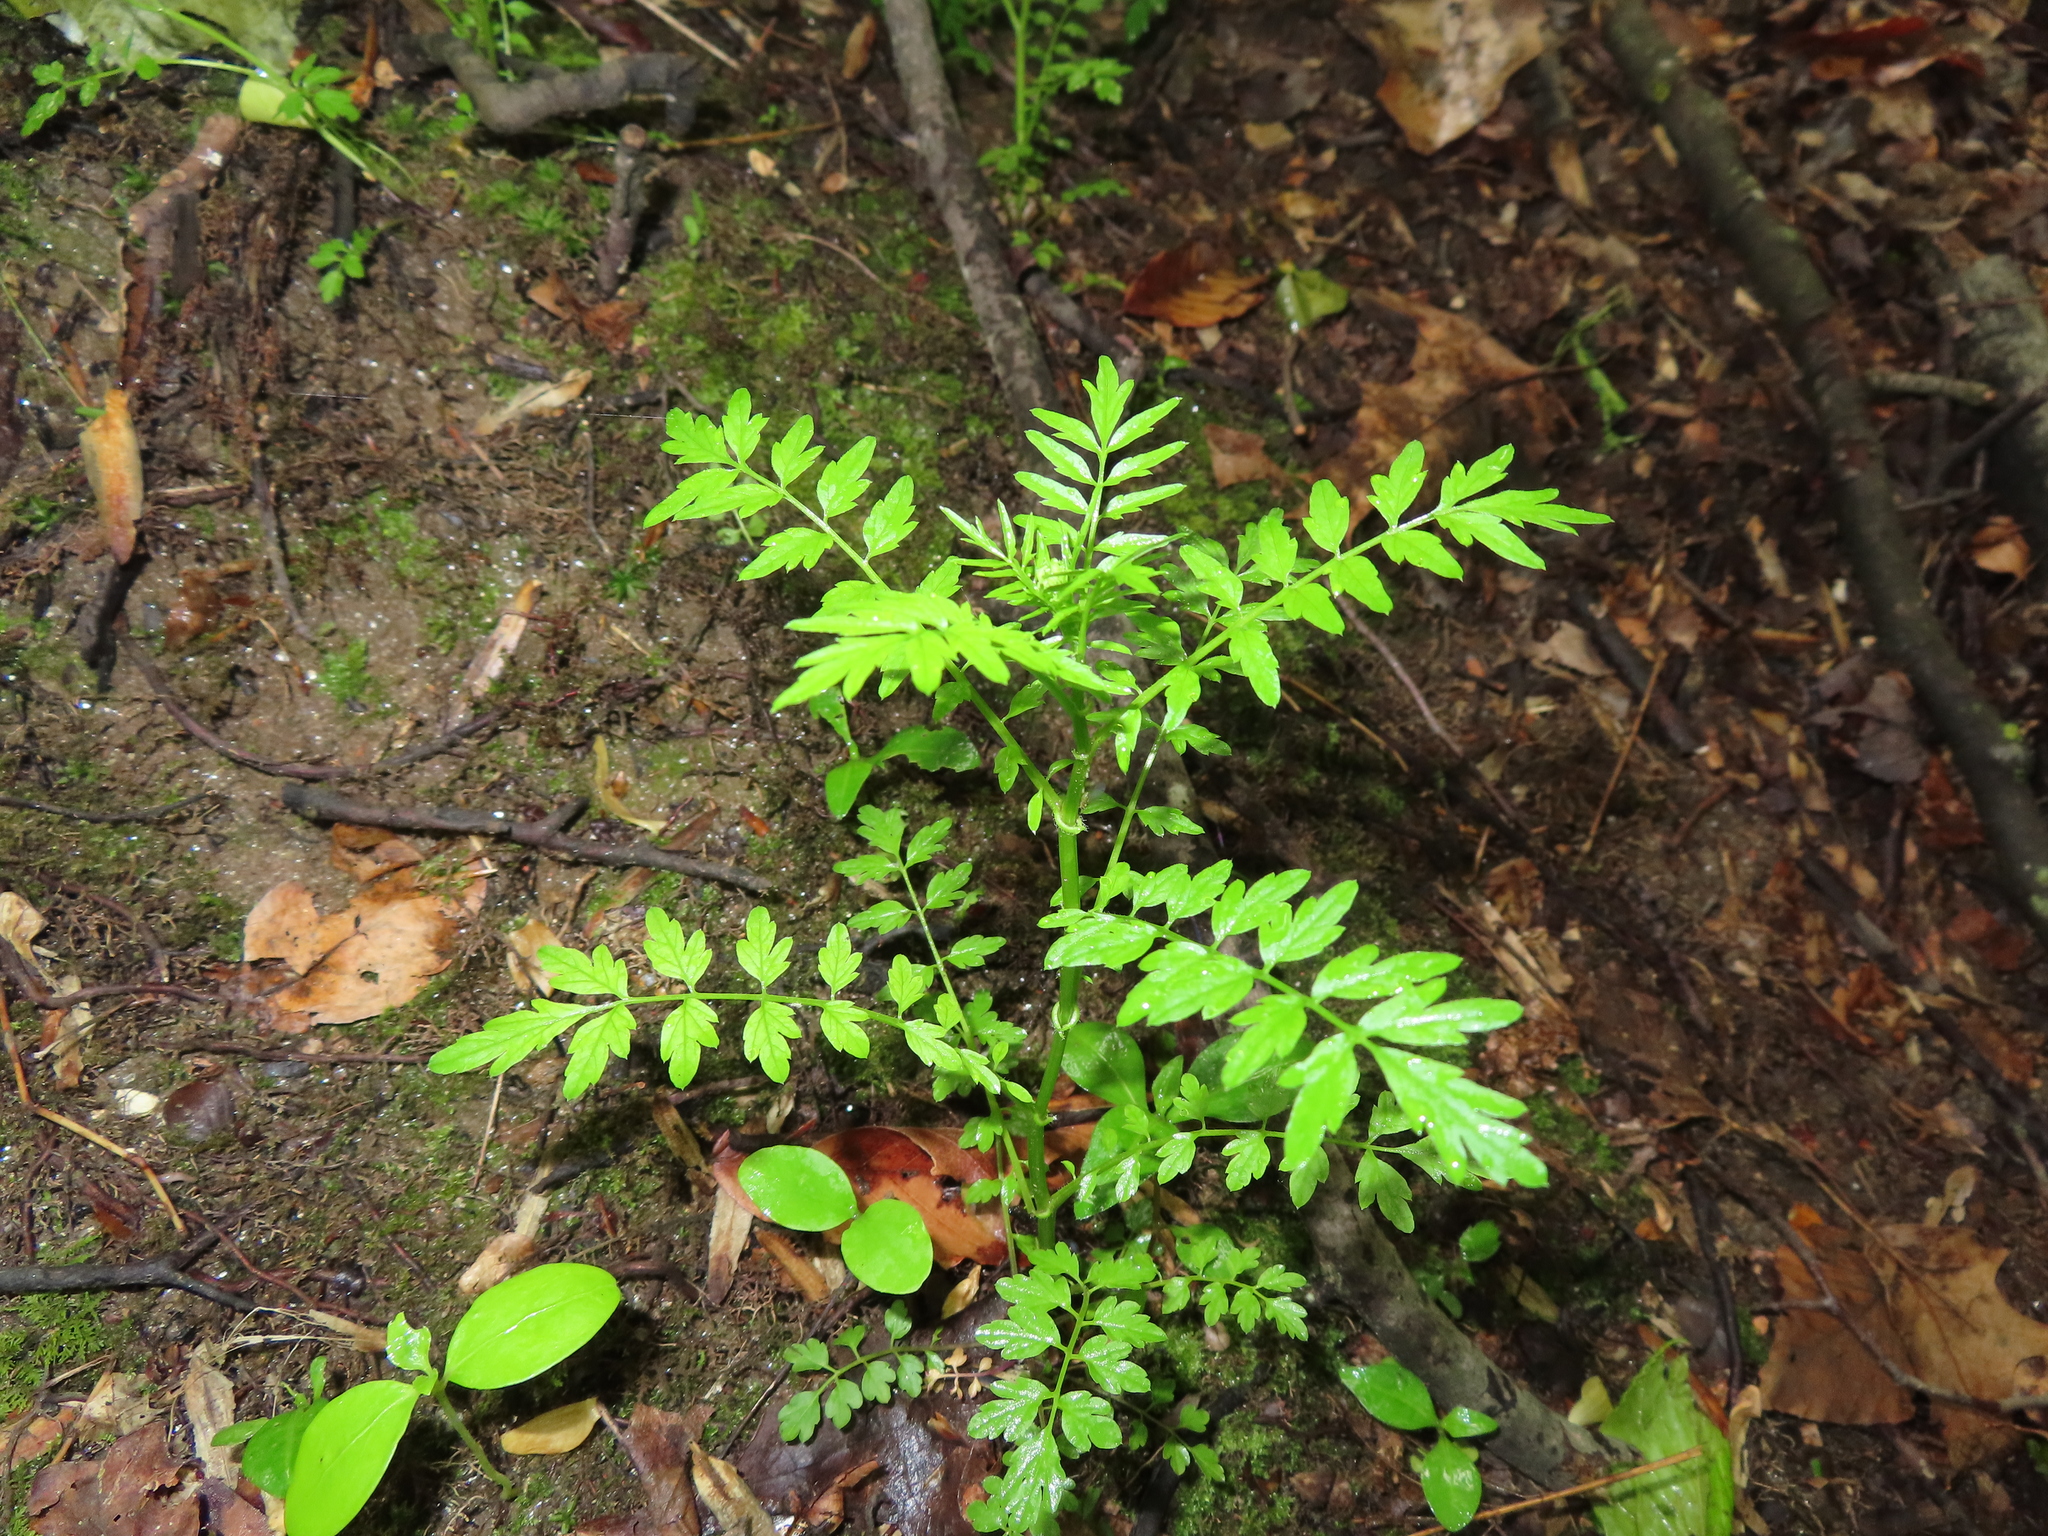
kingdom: Plantae
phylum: Tracheophyta
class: Magnoliopsida
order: Brassicales
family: Brassicaceae
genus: Cardamine
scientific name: Cardamine impatiens
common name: Narrow-leaved bitter-cress
